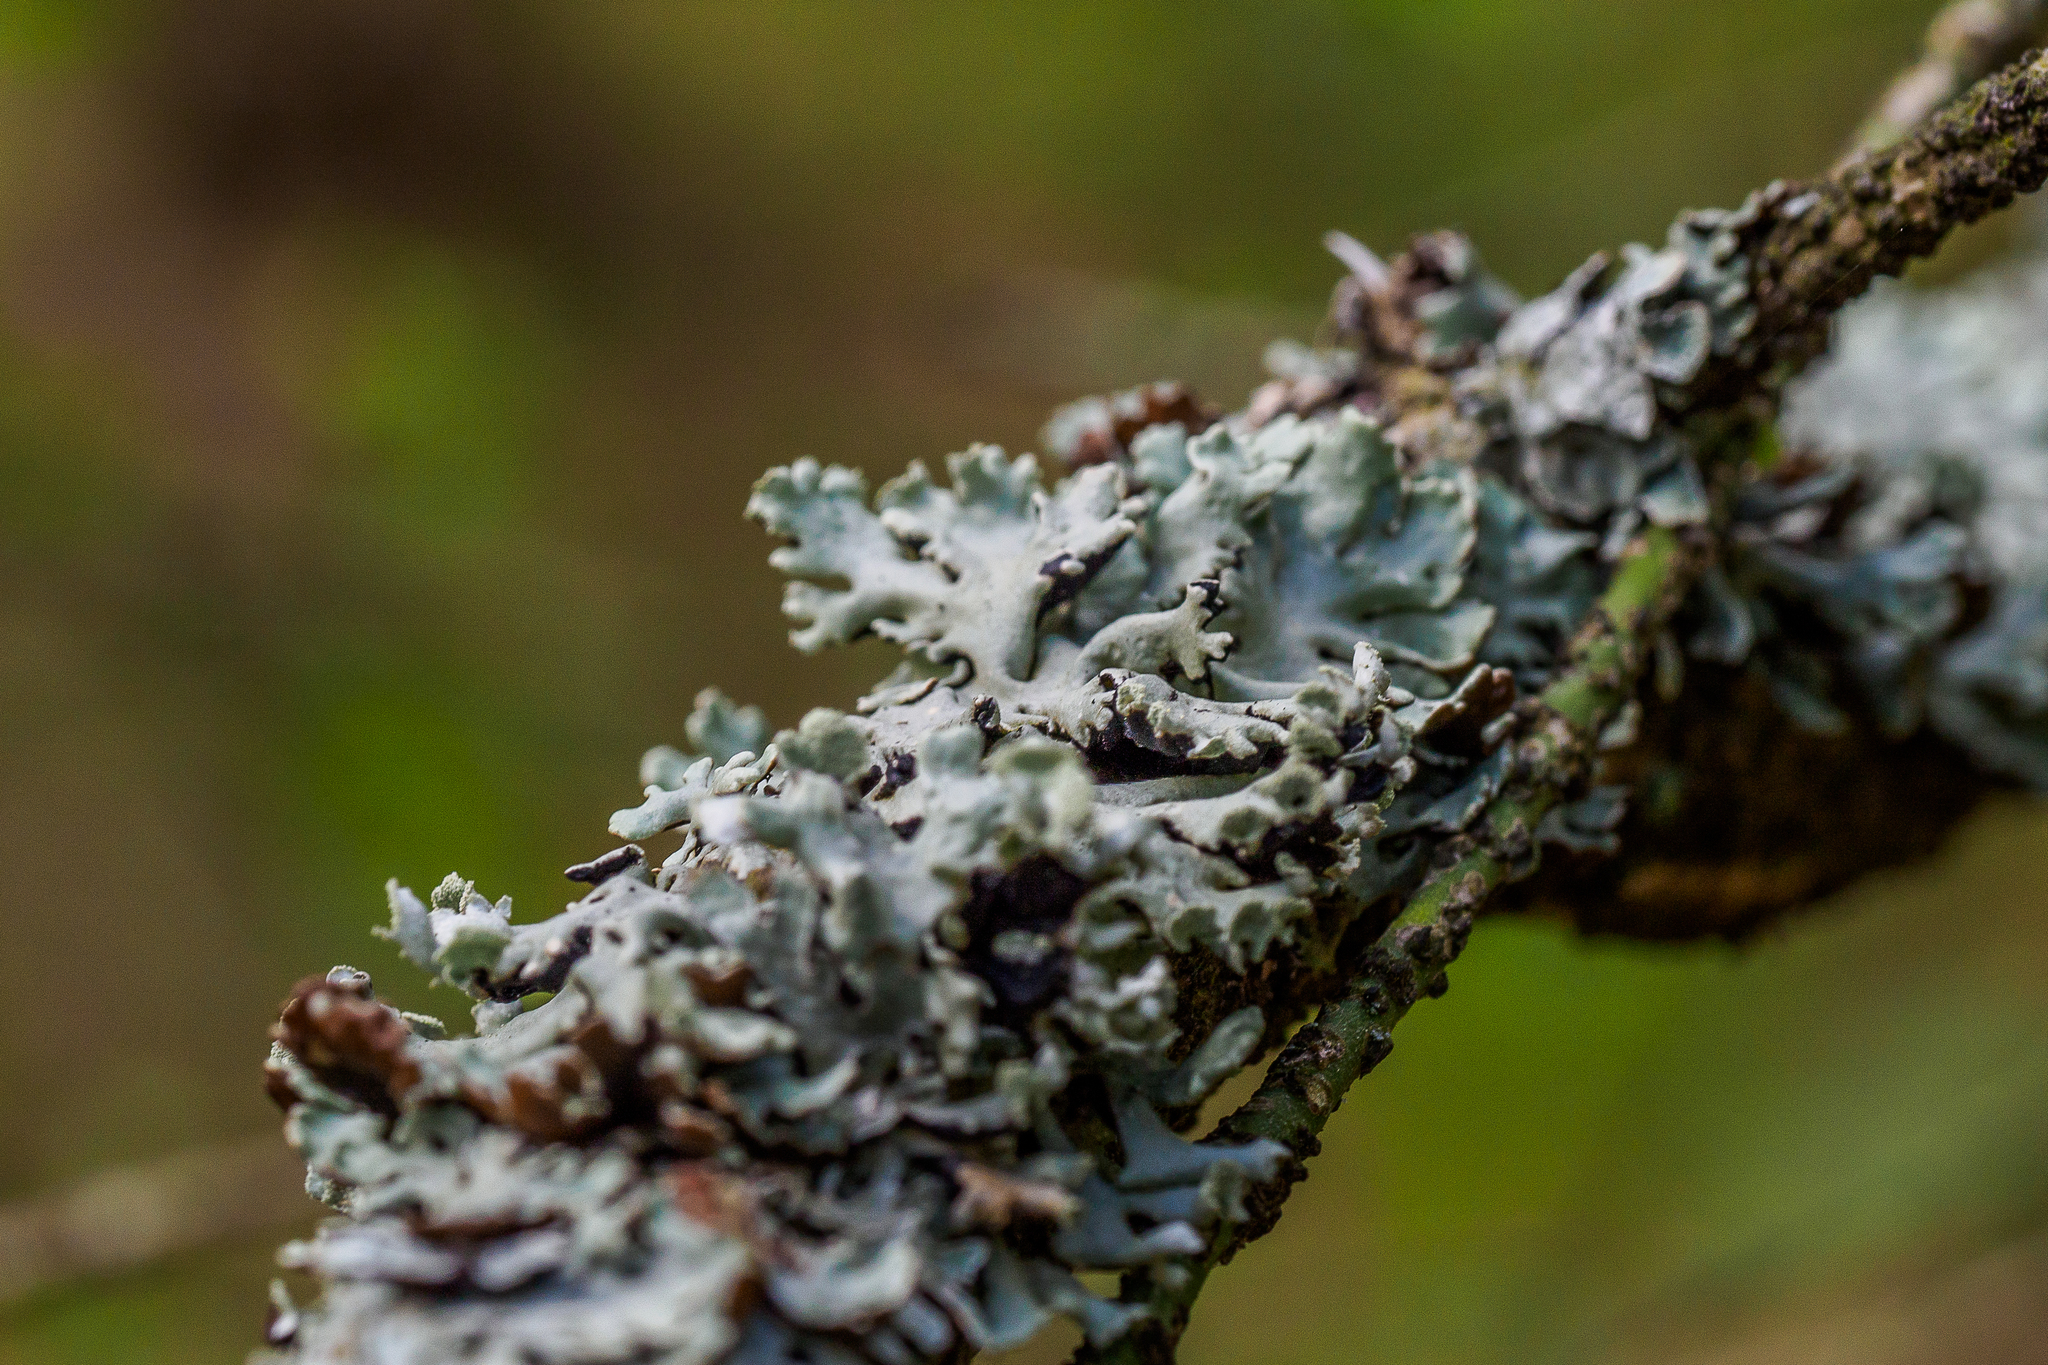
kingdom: Fungi
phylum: Ascomycota
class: Lecanoromycetes
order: Lecanorales
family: Parmeliaceae
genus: Hypogymnia
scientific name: Hypogymnia physodes
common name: Dark crottle
